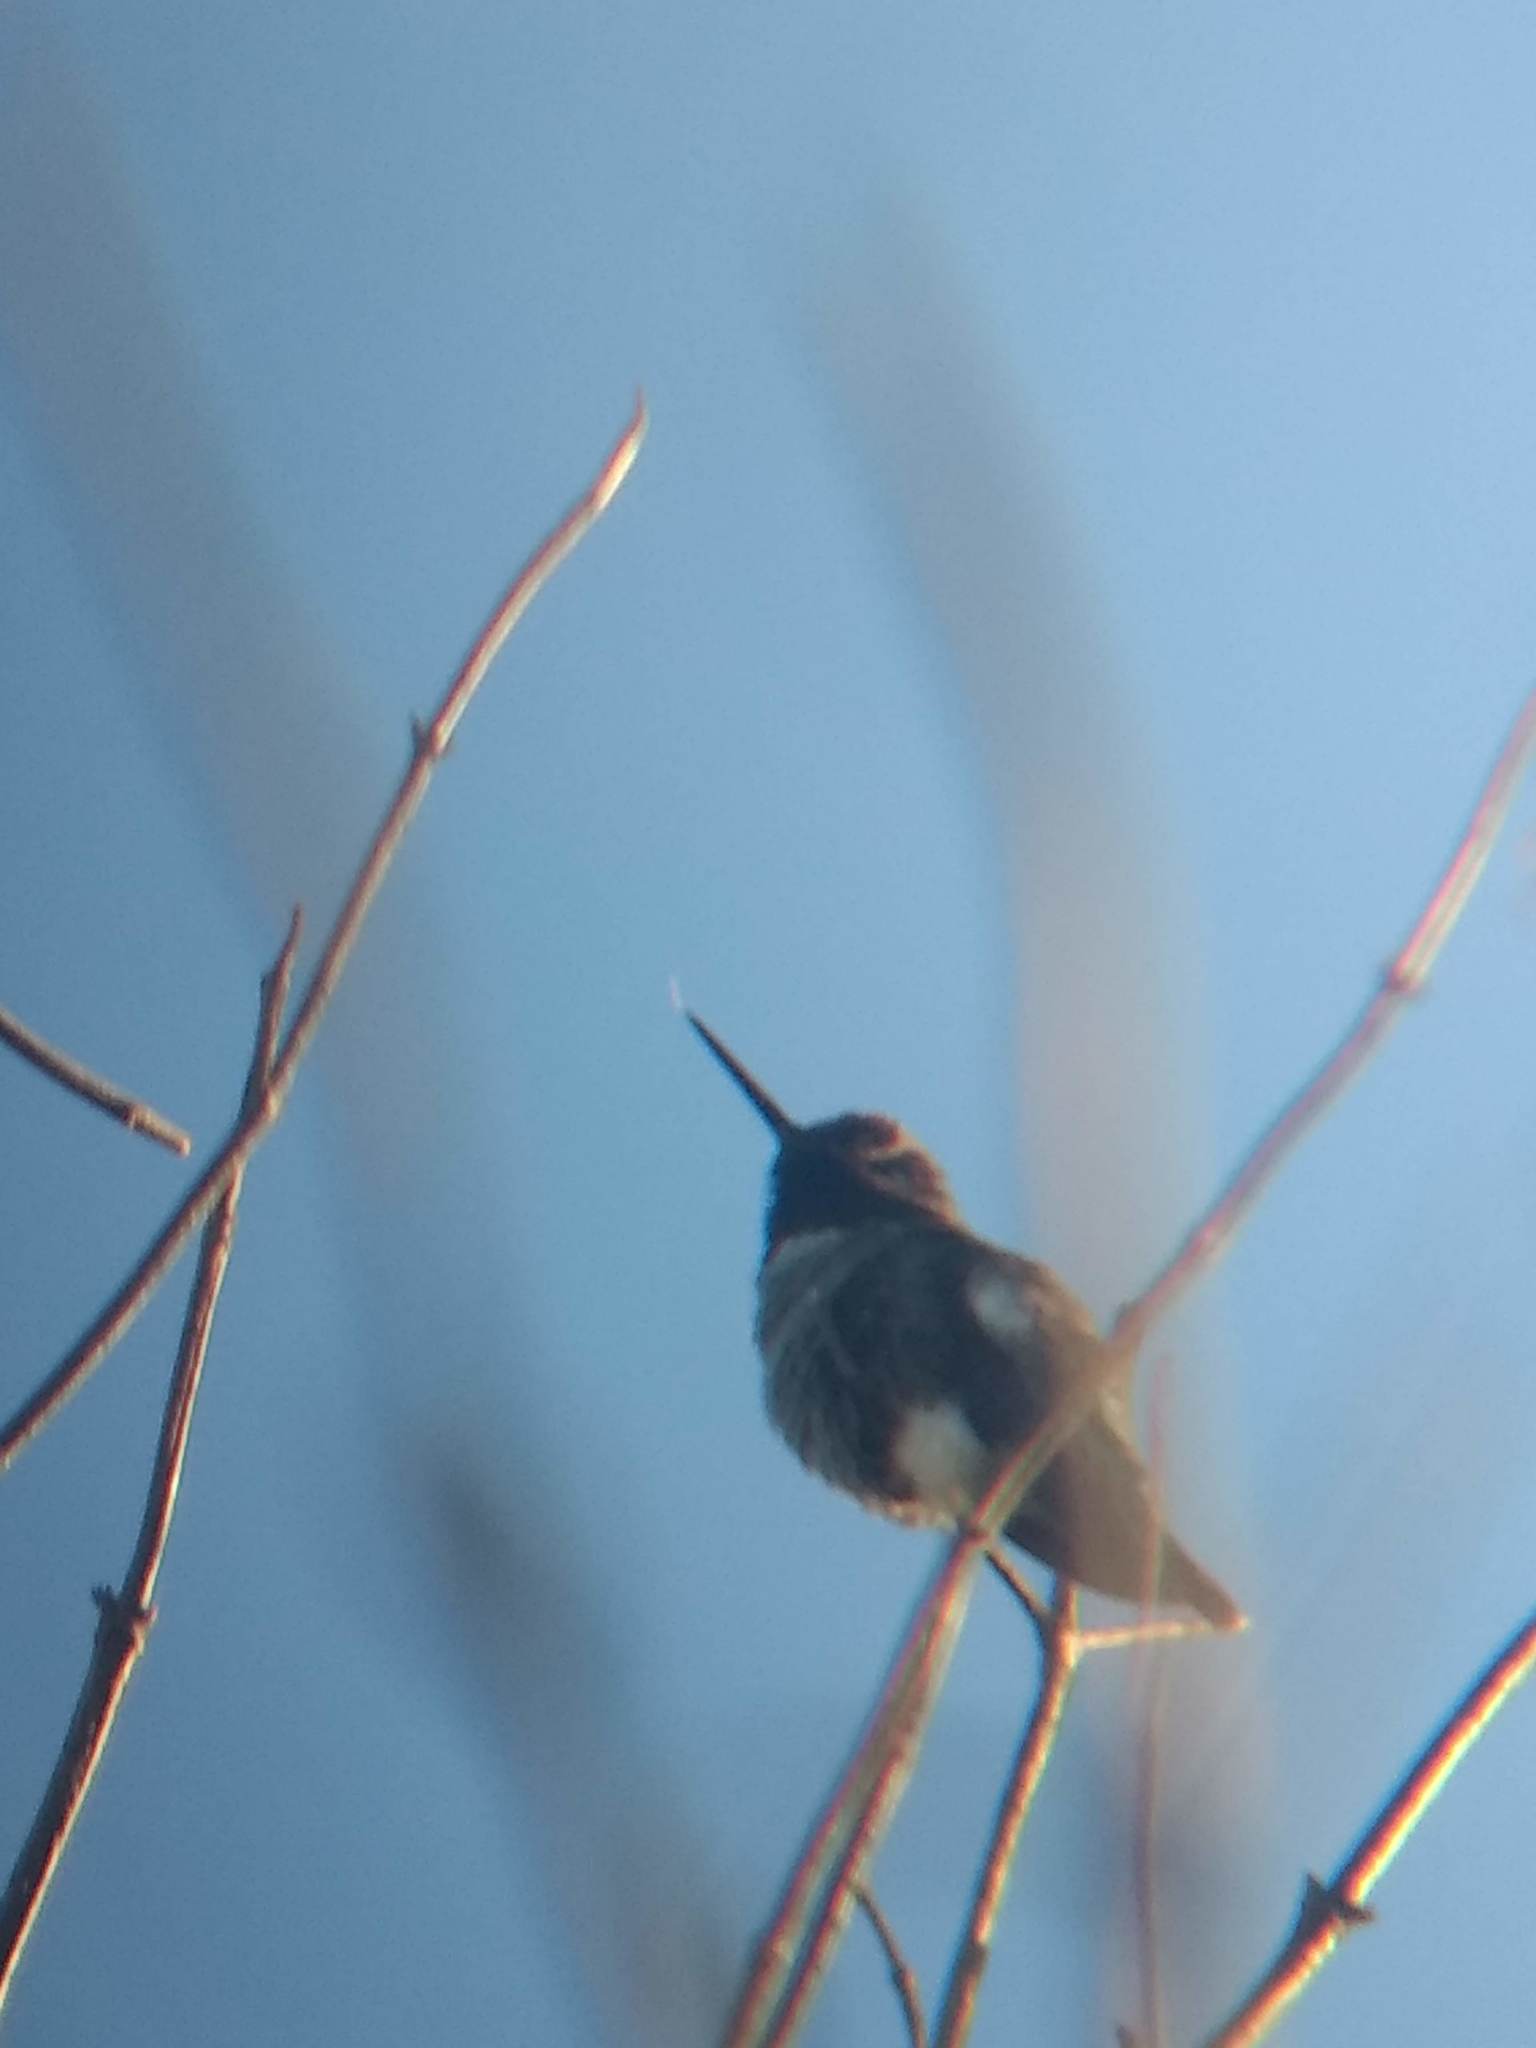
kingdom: Animalia
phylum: Chordata
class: Aves
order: Apodiformes
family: Trochilidae
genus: Calypte
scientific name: Calypte anna
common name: Anna's hummingbird
